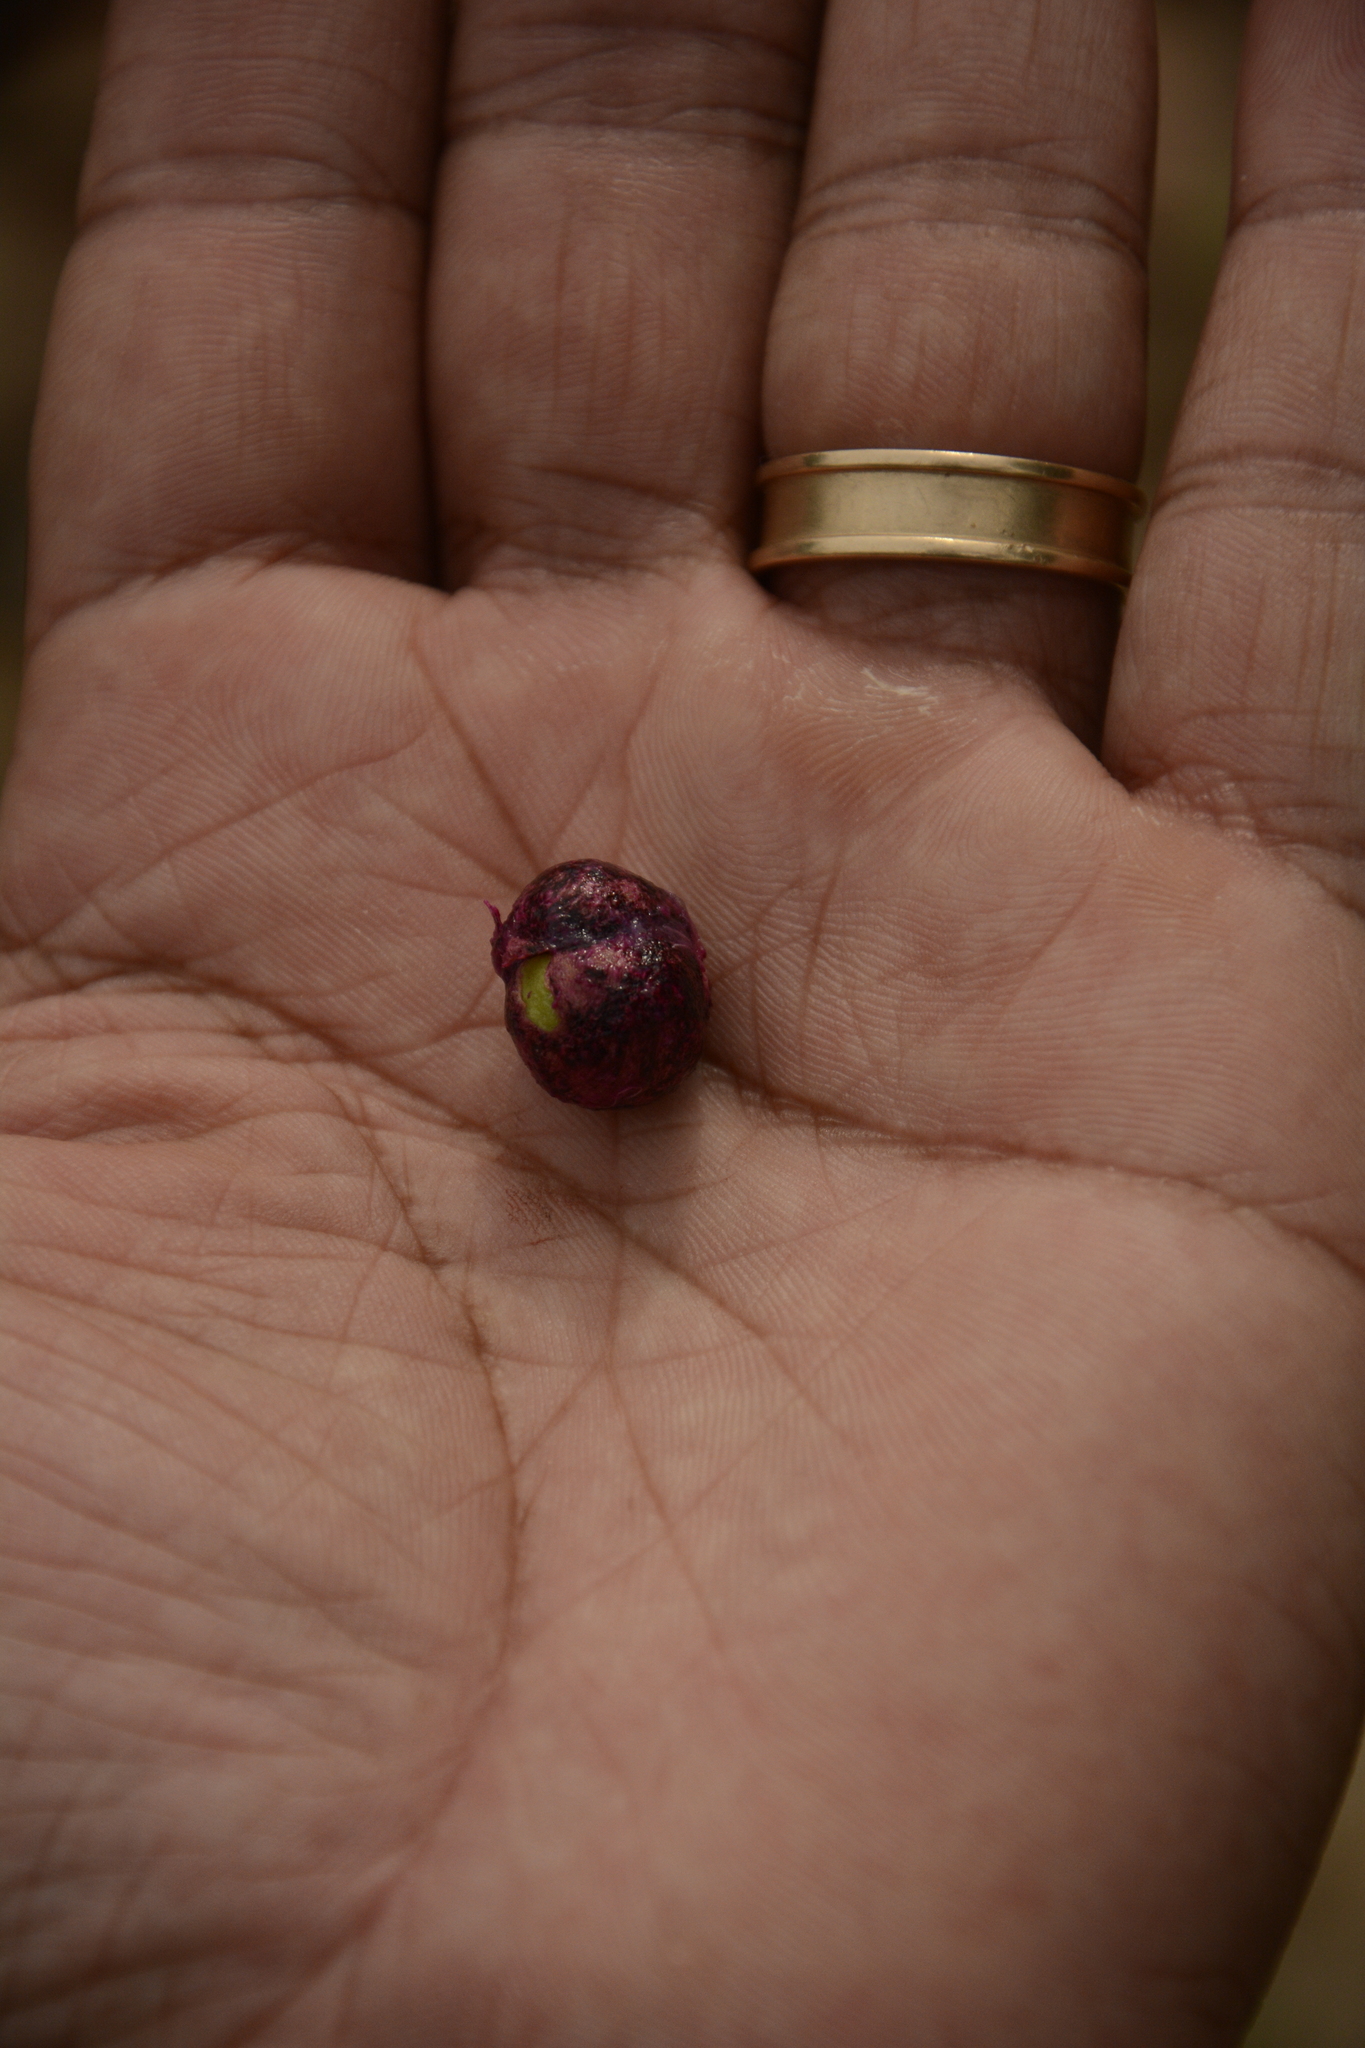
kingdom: Plantae
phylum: Tracheophyta
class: Magnoliopsida
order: Myrtales
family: Myrtaceae
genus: Syzygium
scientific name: Syzygium nervosum
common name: Daly river satinash
